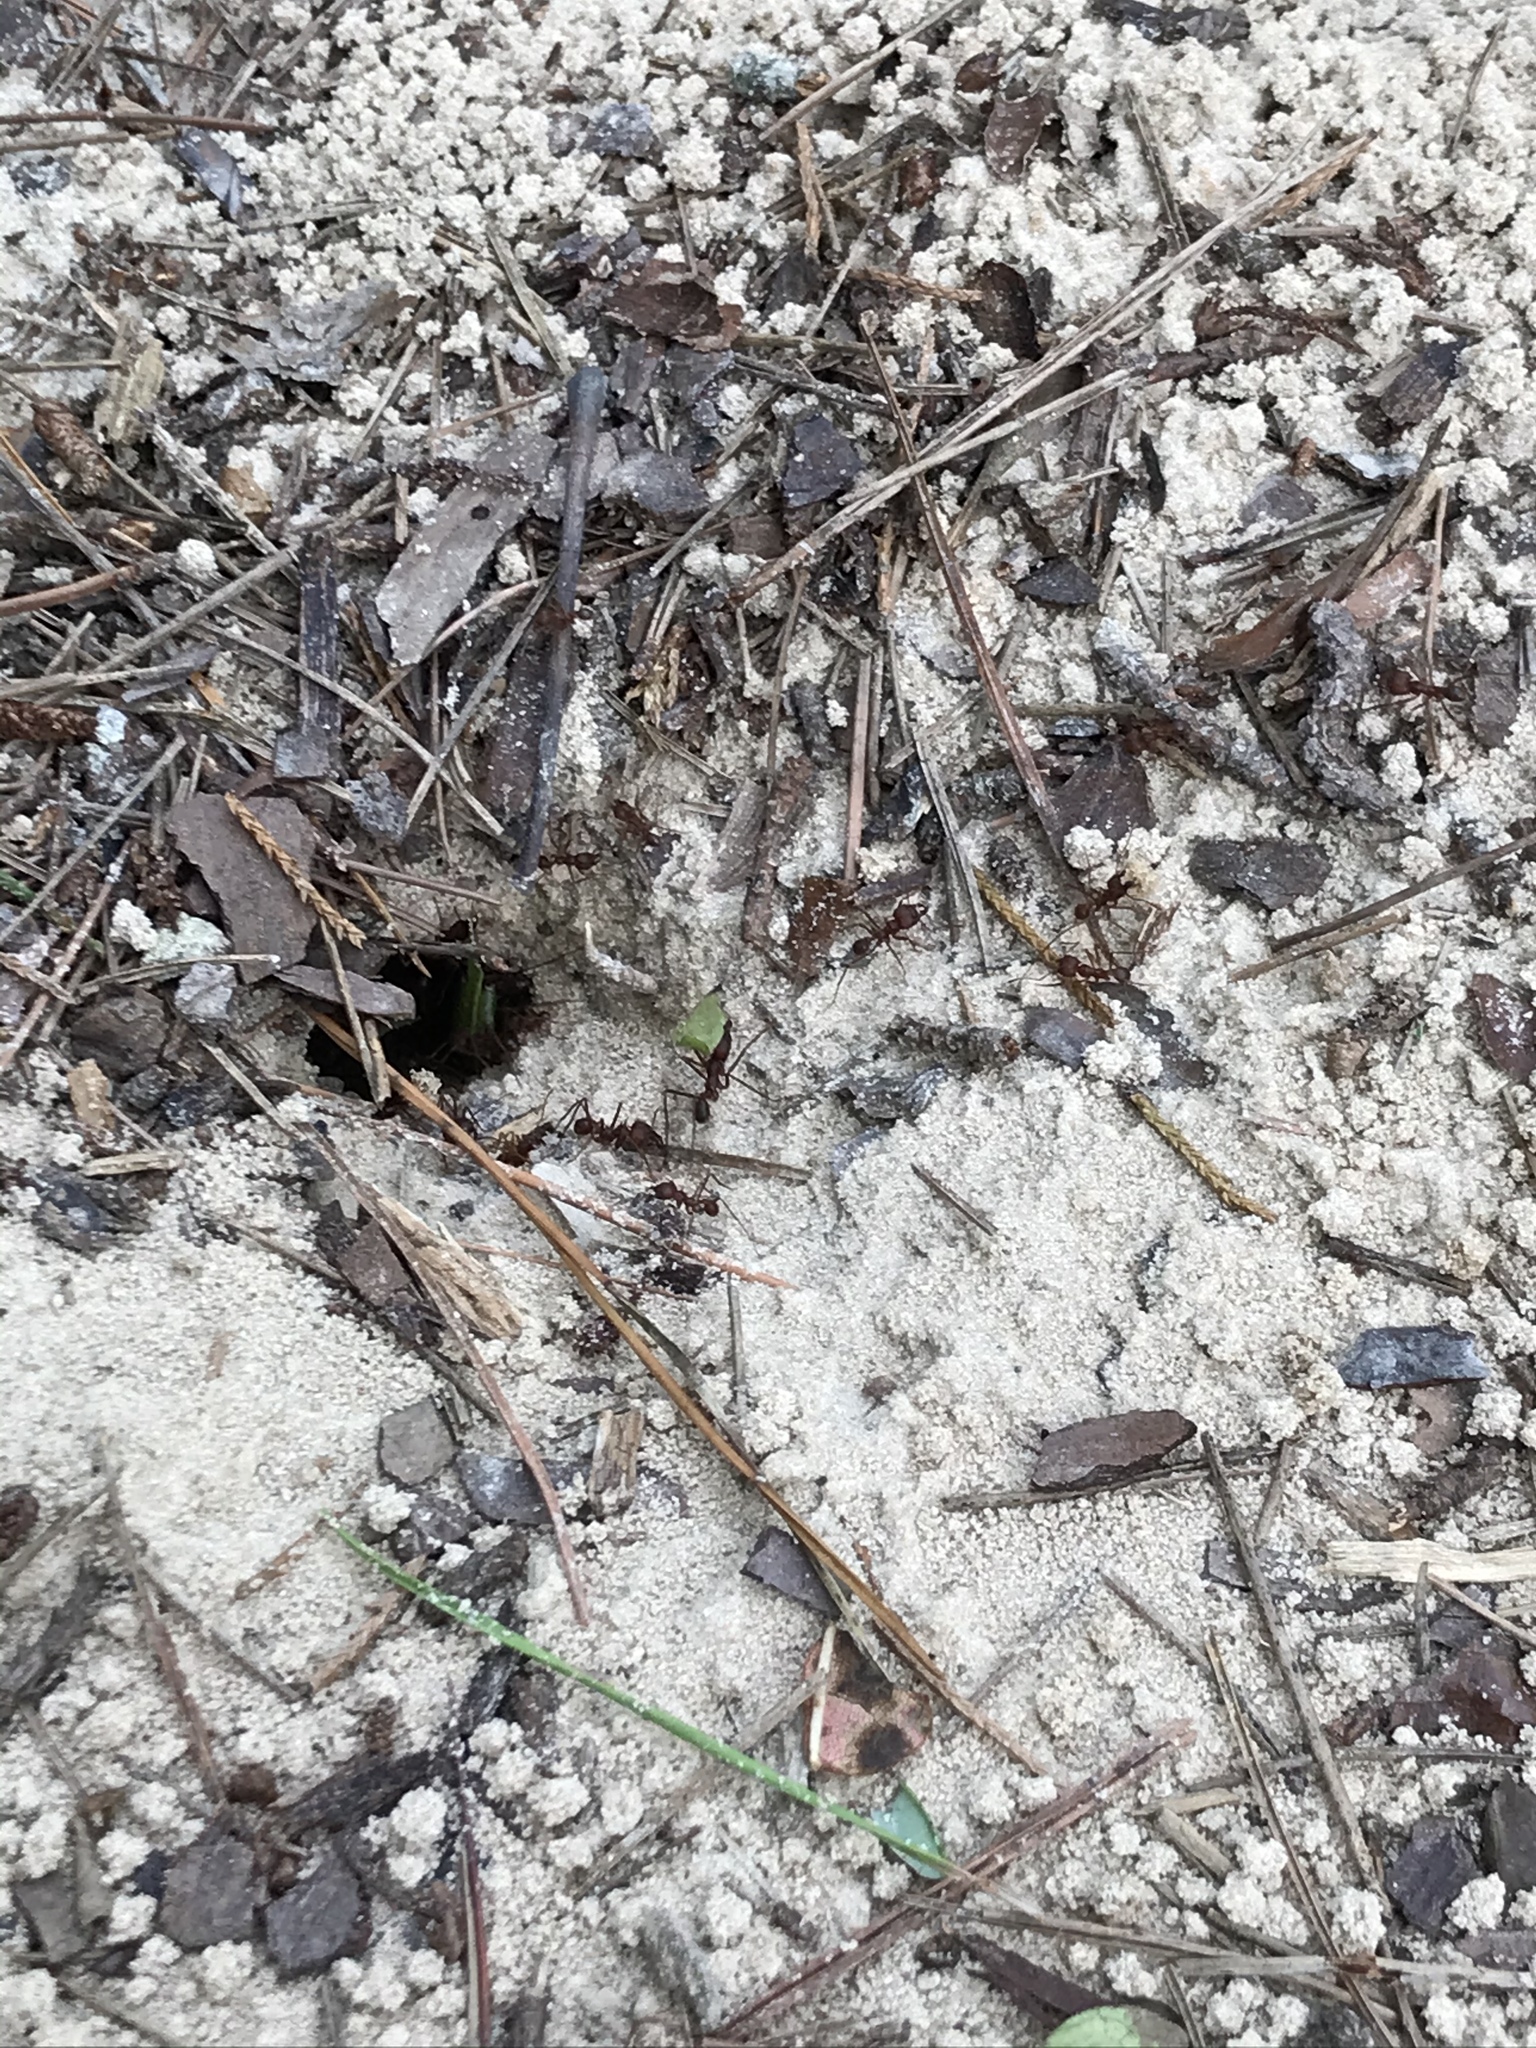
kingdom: Animalia
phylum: Arthropoda
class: Insecta
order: Hymenoptera
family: Formicidae
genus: Atta
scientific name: Atta texana
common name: Texas leafcutting ant
